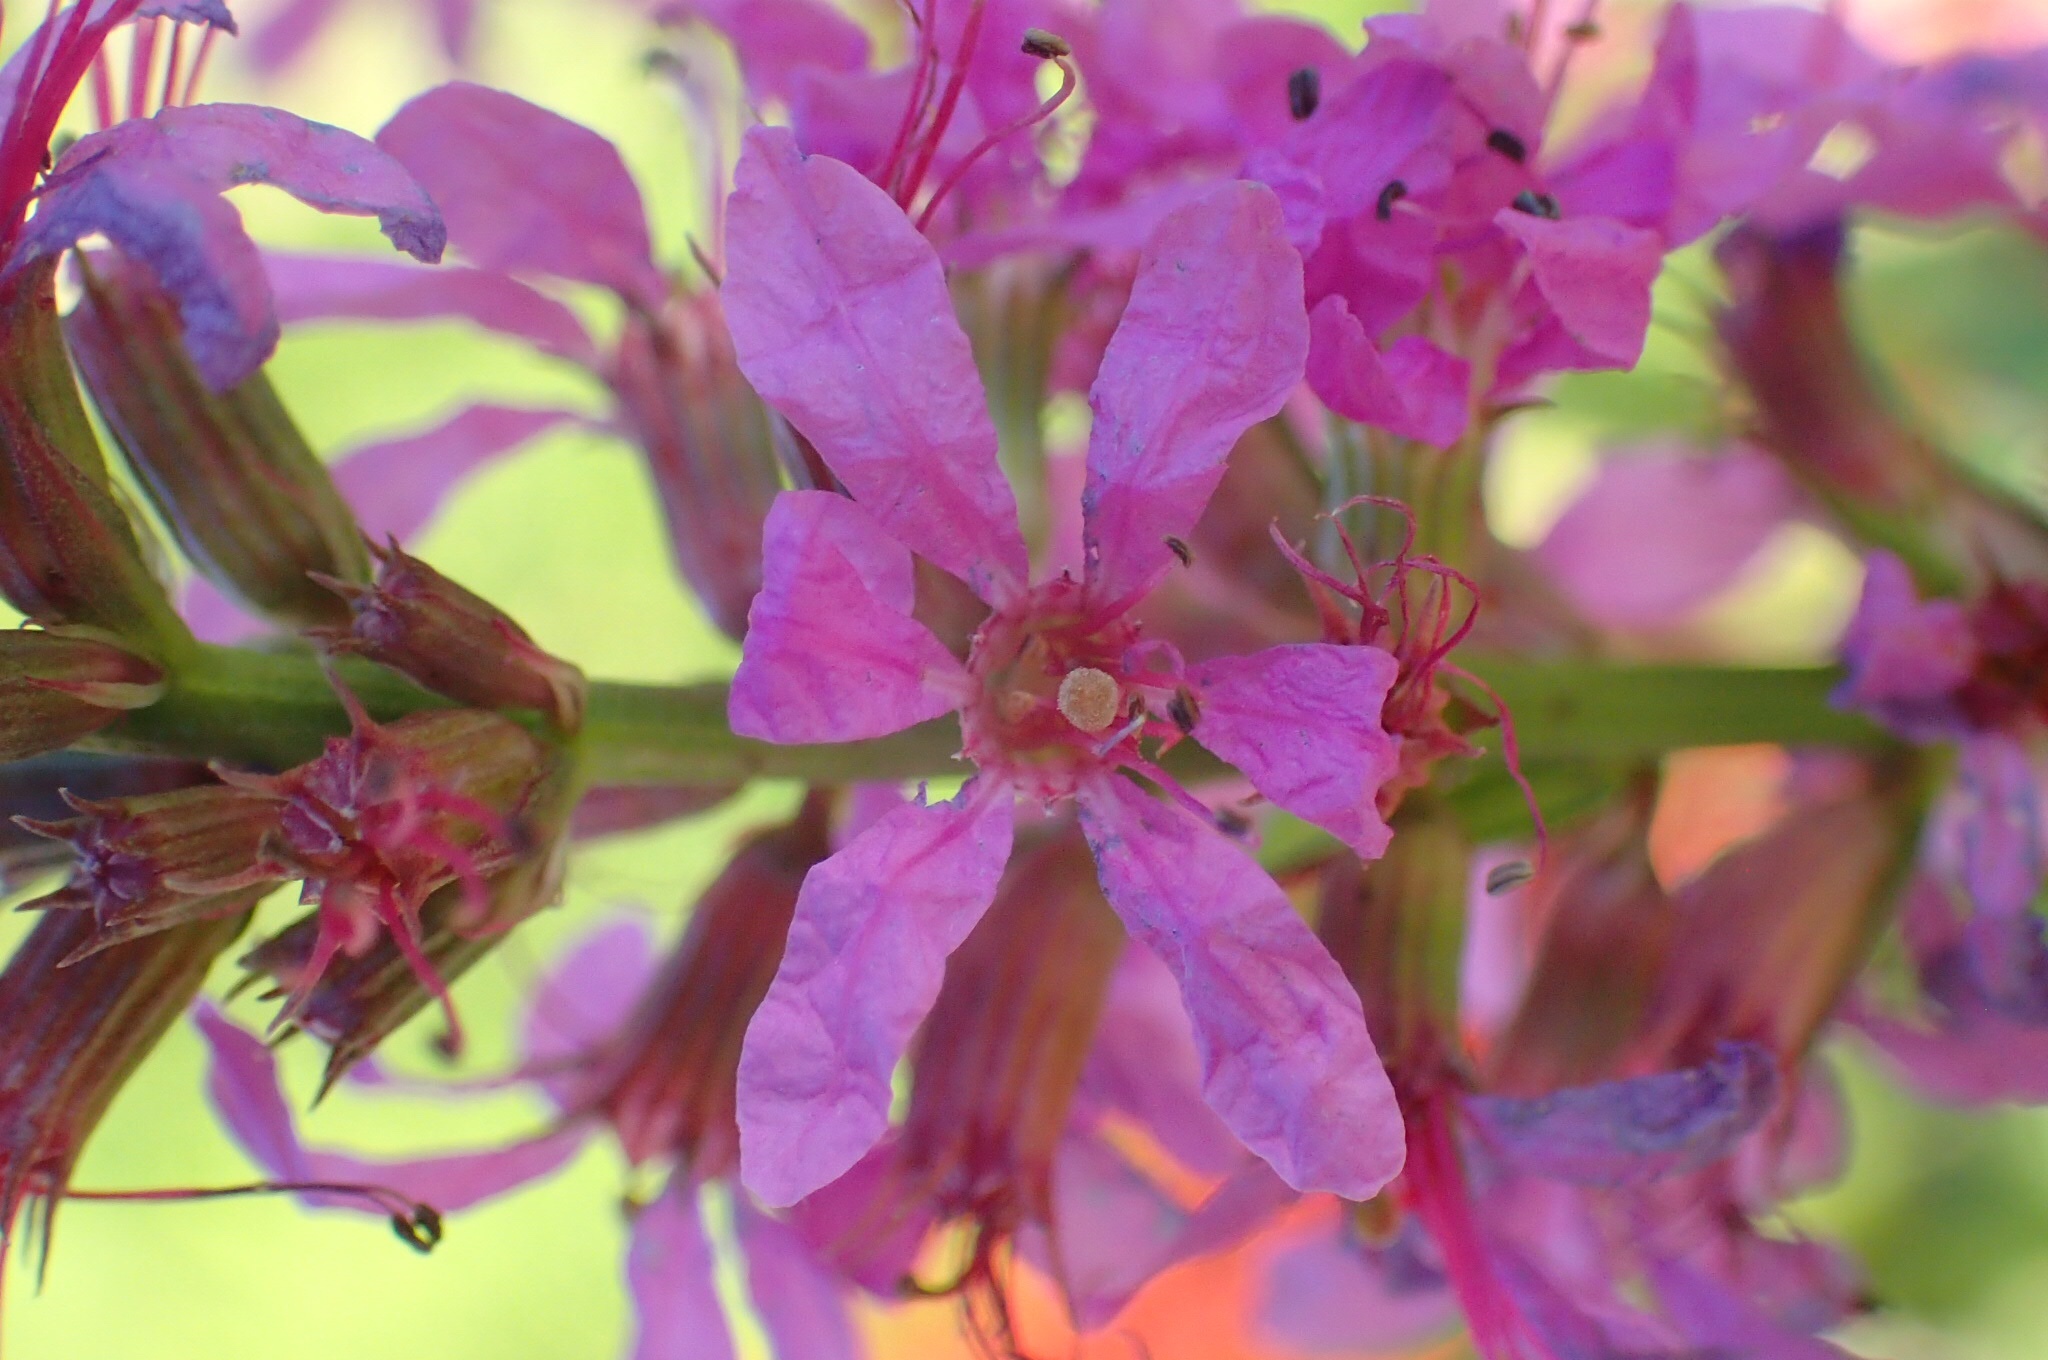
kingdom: Plantae
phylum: Tracheophyta
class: Magnoliopsida
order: Myrtales
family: Lythraceae
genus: Lythrum
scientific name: Lythrum salicaria
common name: Purple loosestrife
